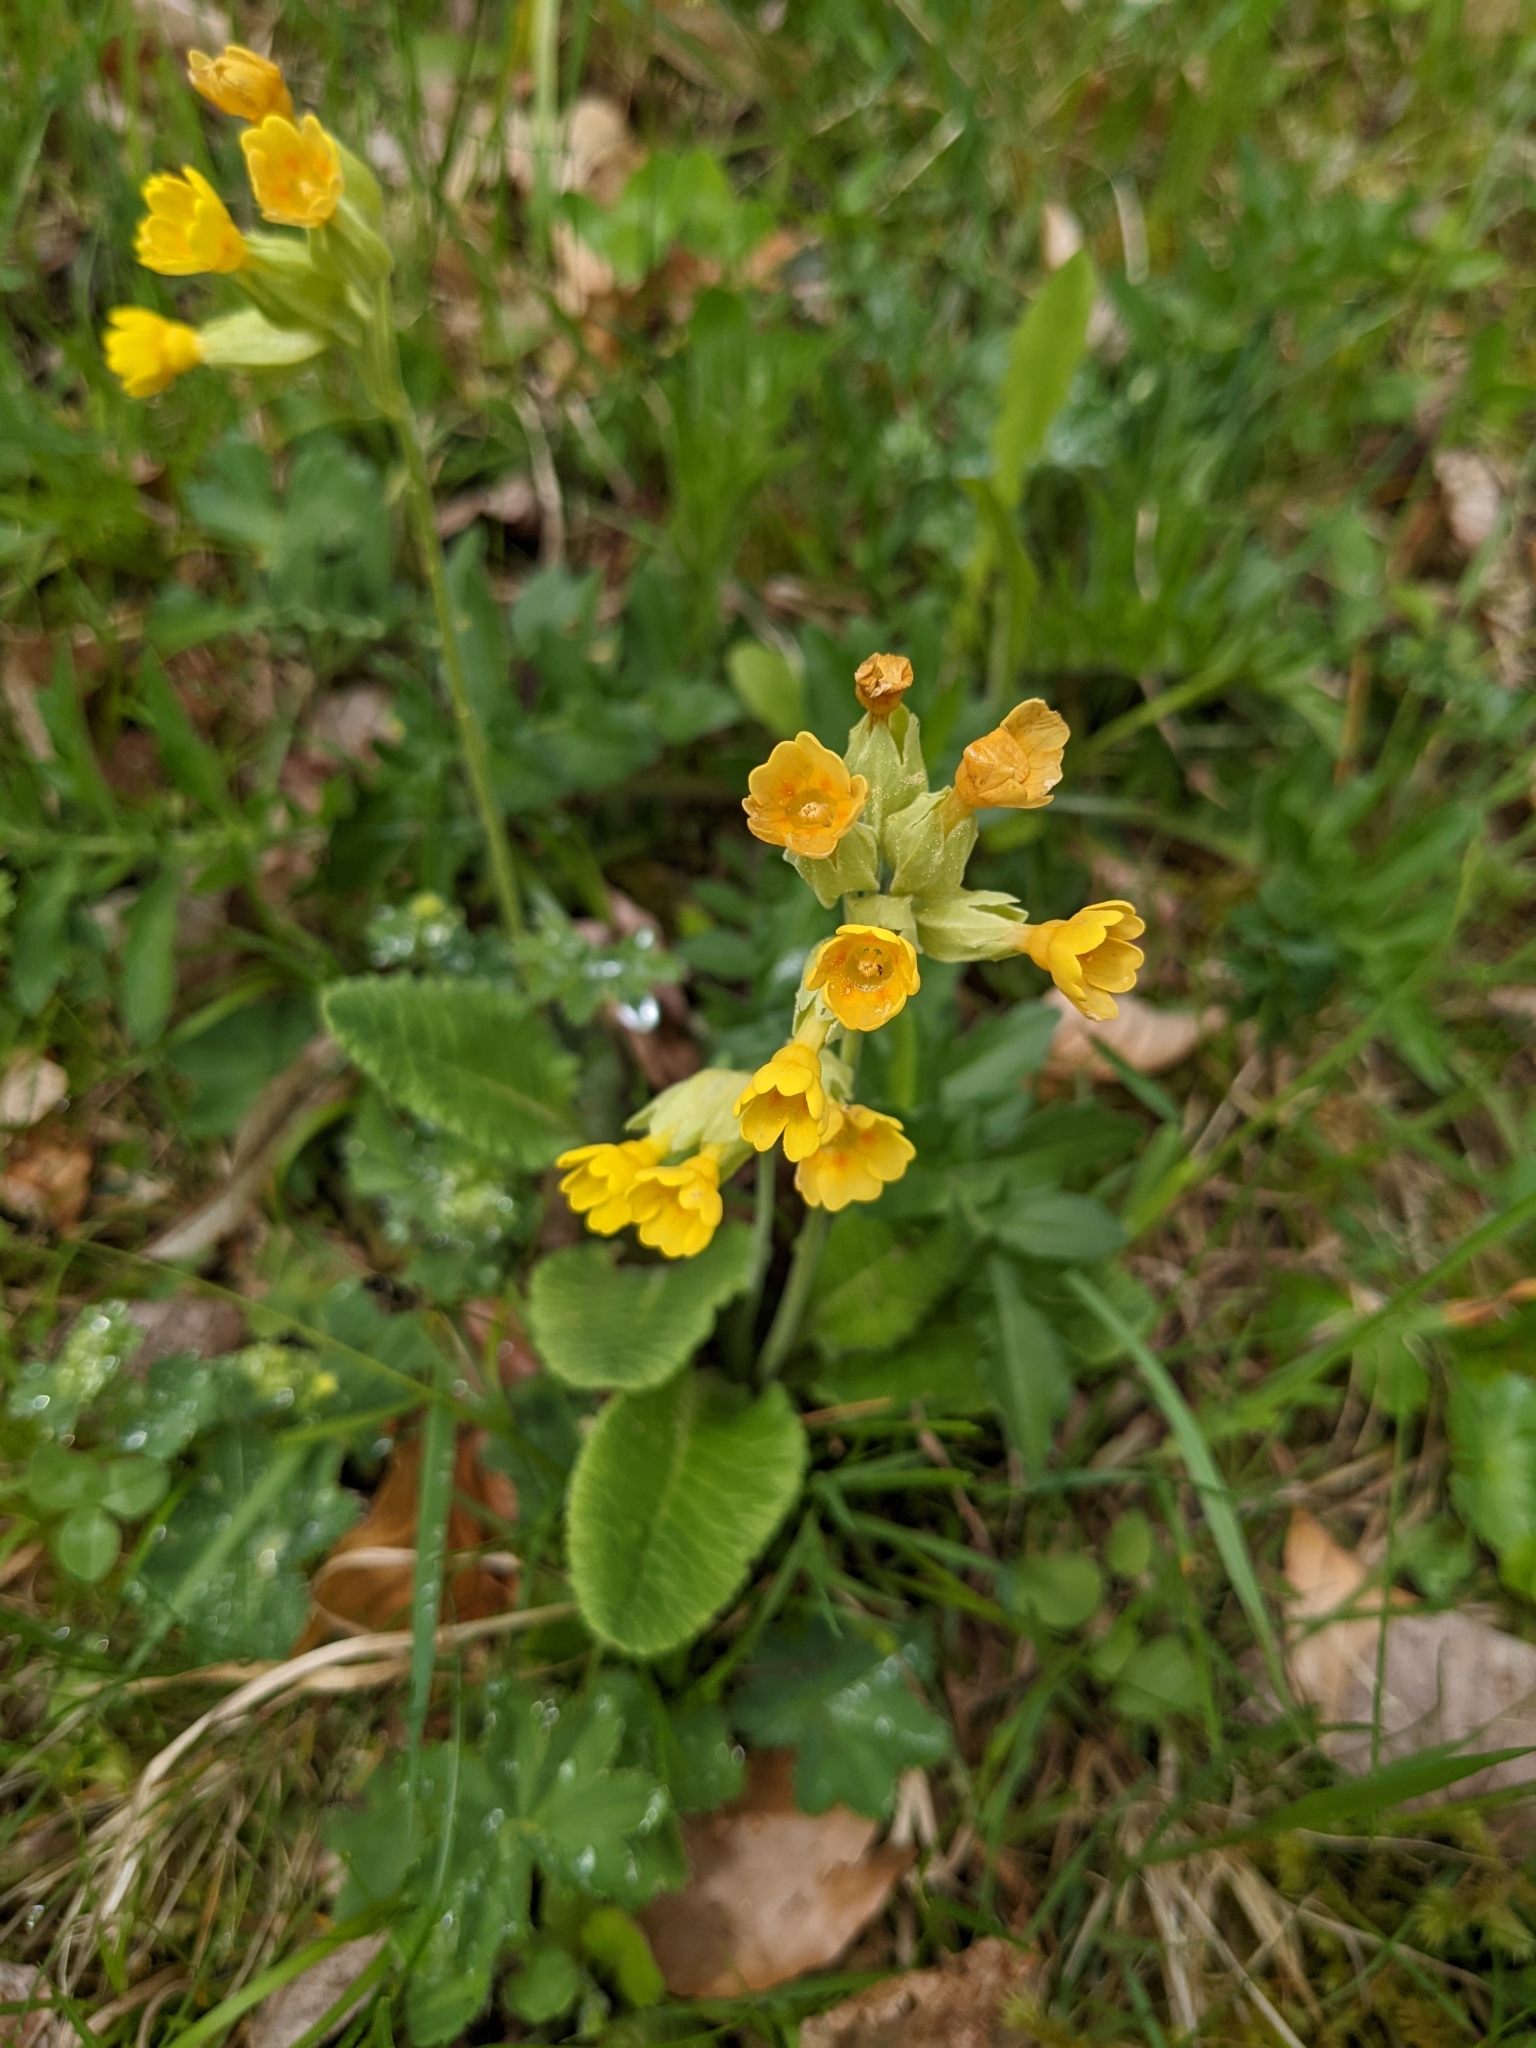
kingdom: Plantae
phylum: Tracheophyta
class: Magnoliopsida
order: Ericales
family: Primulaceae
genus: Primula
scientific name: Primula veris
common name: Cowslip
